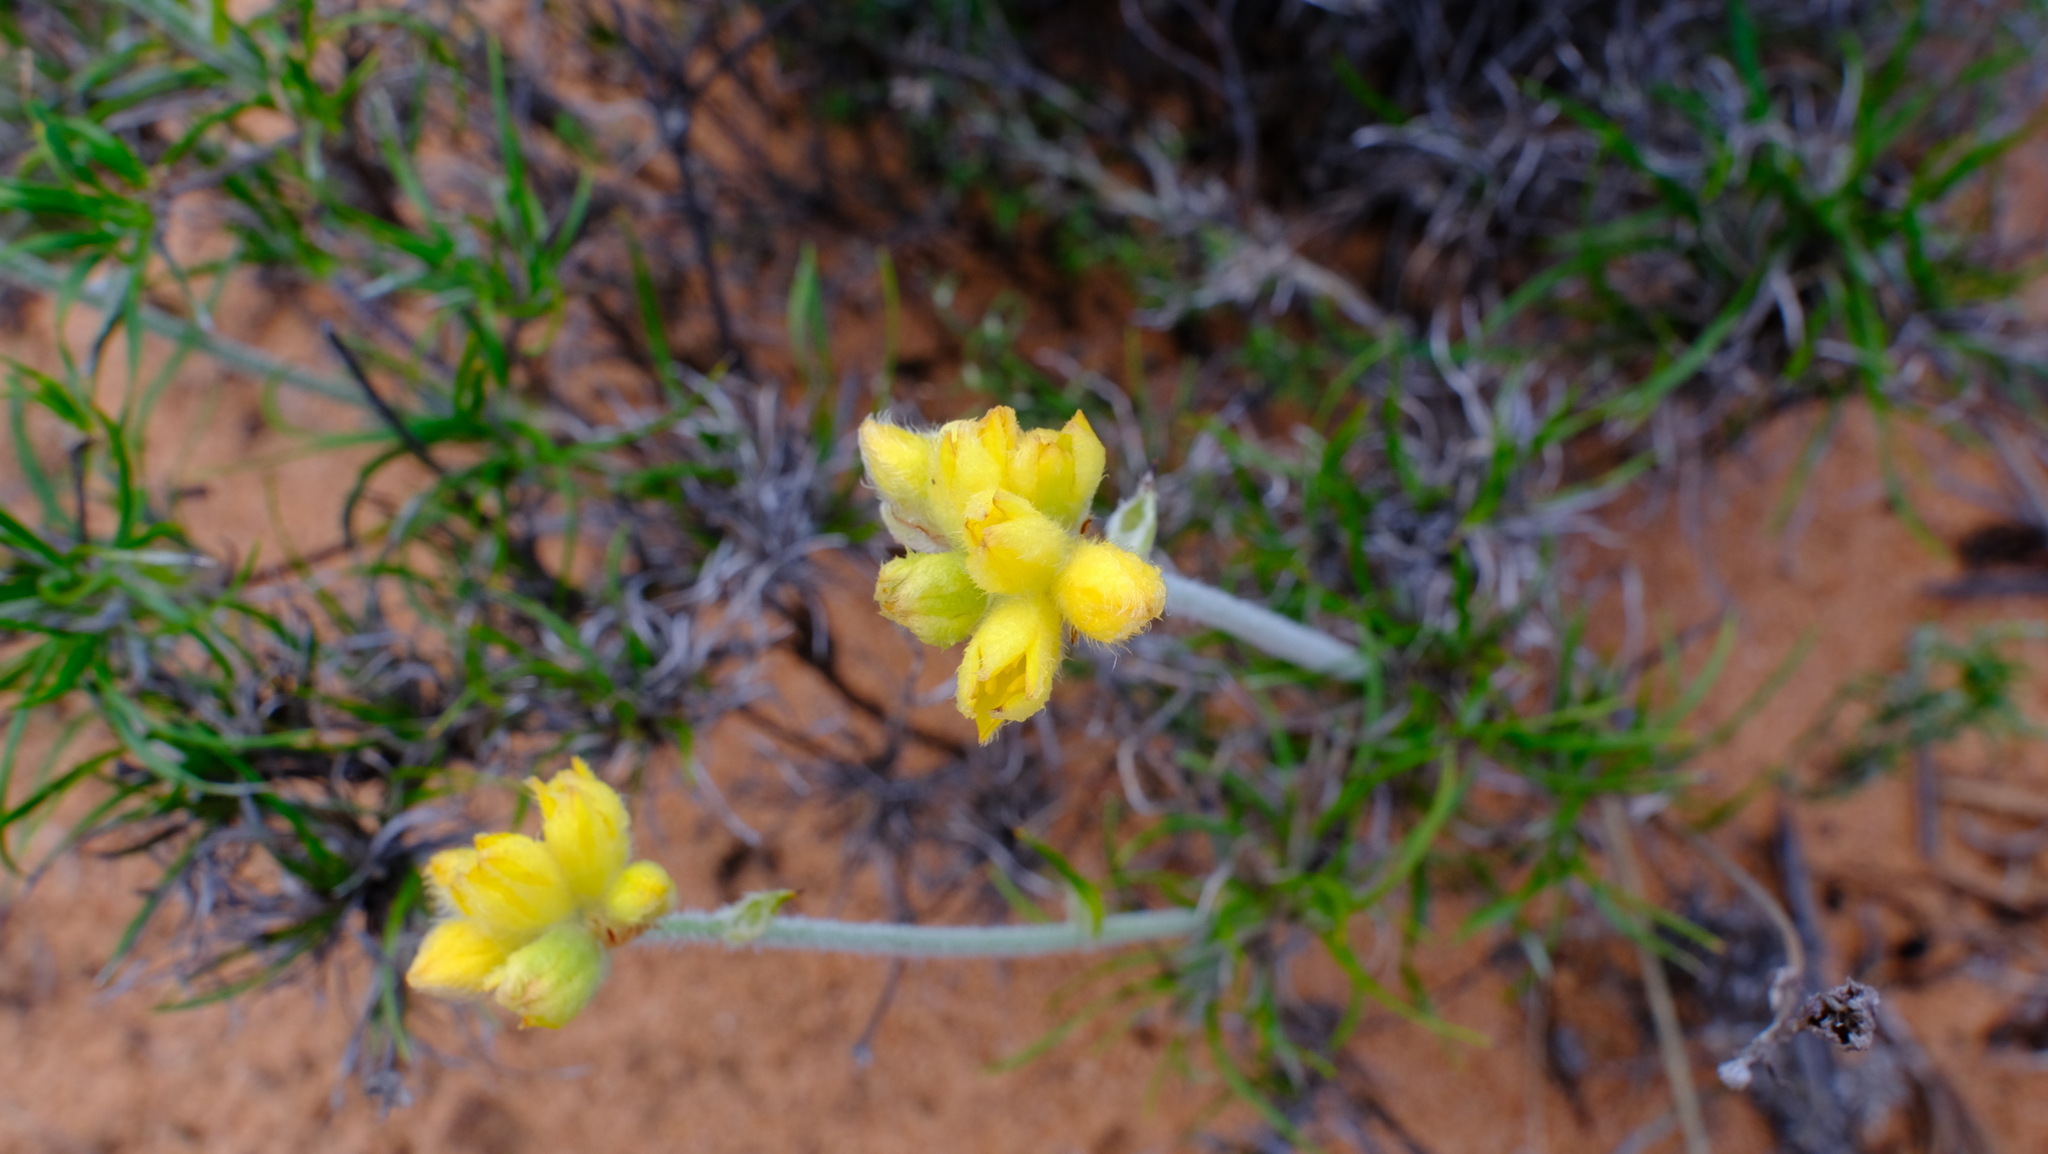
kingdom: Plantae
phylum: Tracheophyta
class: Liliopsida
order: Commelinales
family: Haemodoraceae
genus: Conostylis
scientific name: Conostylis prolifera
